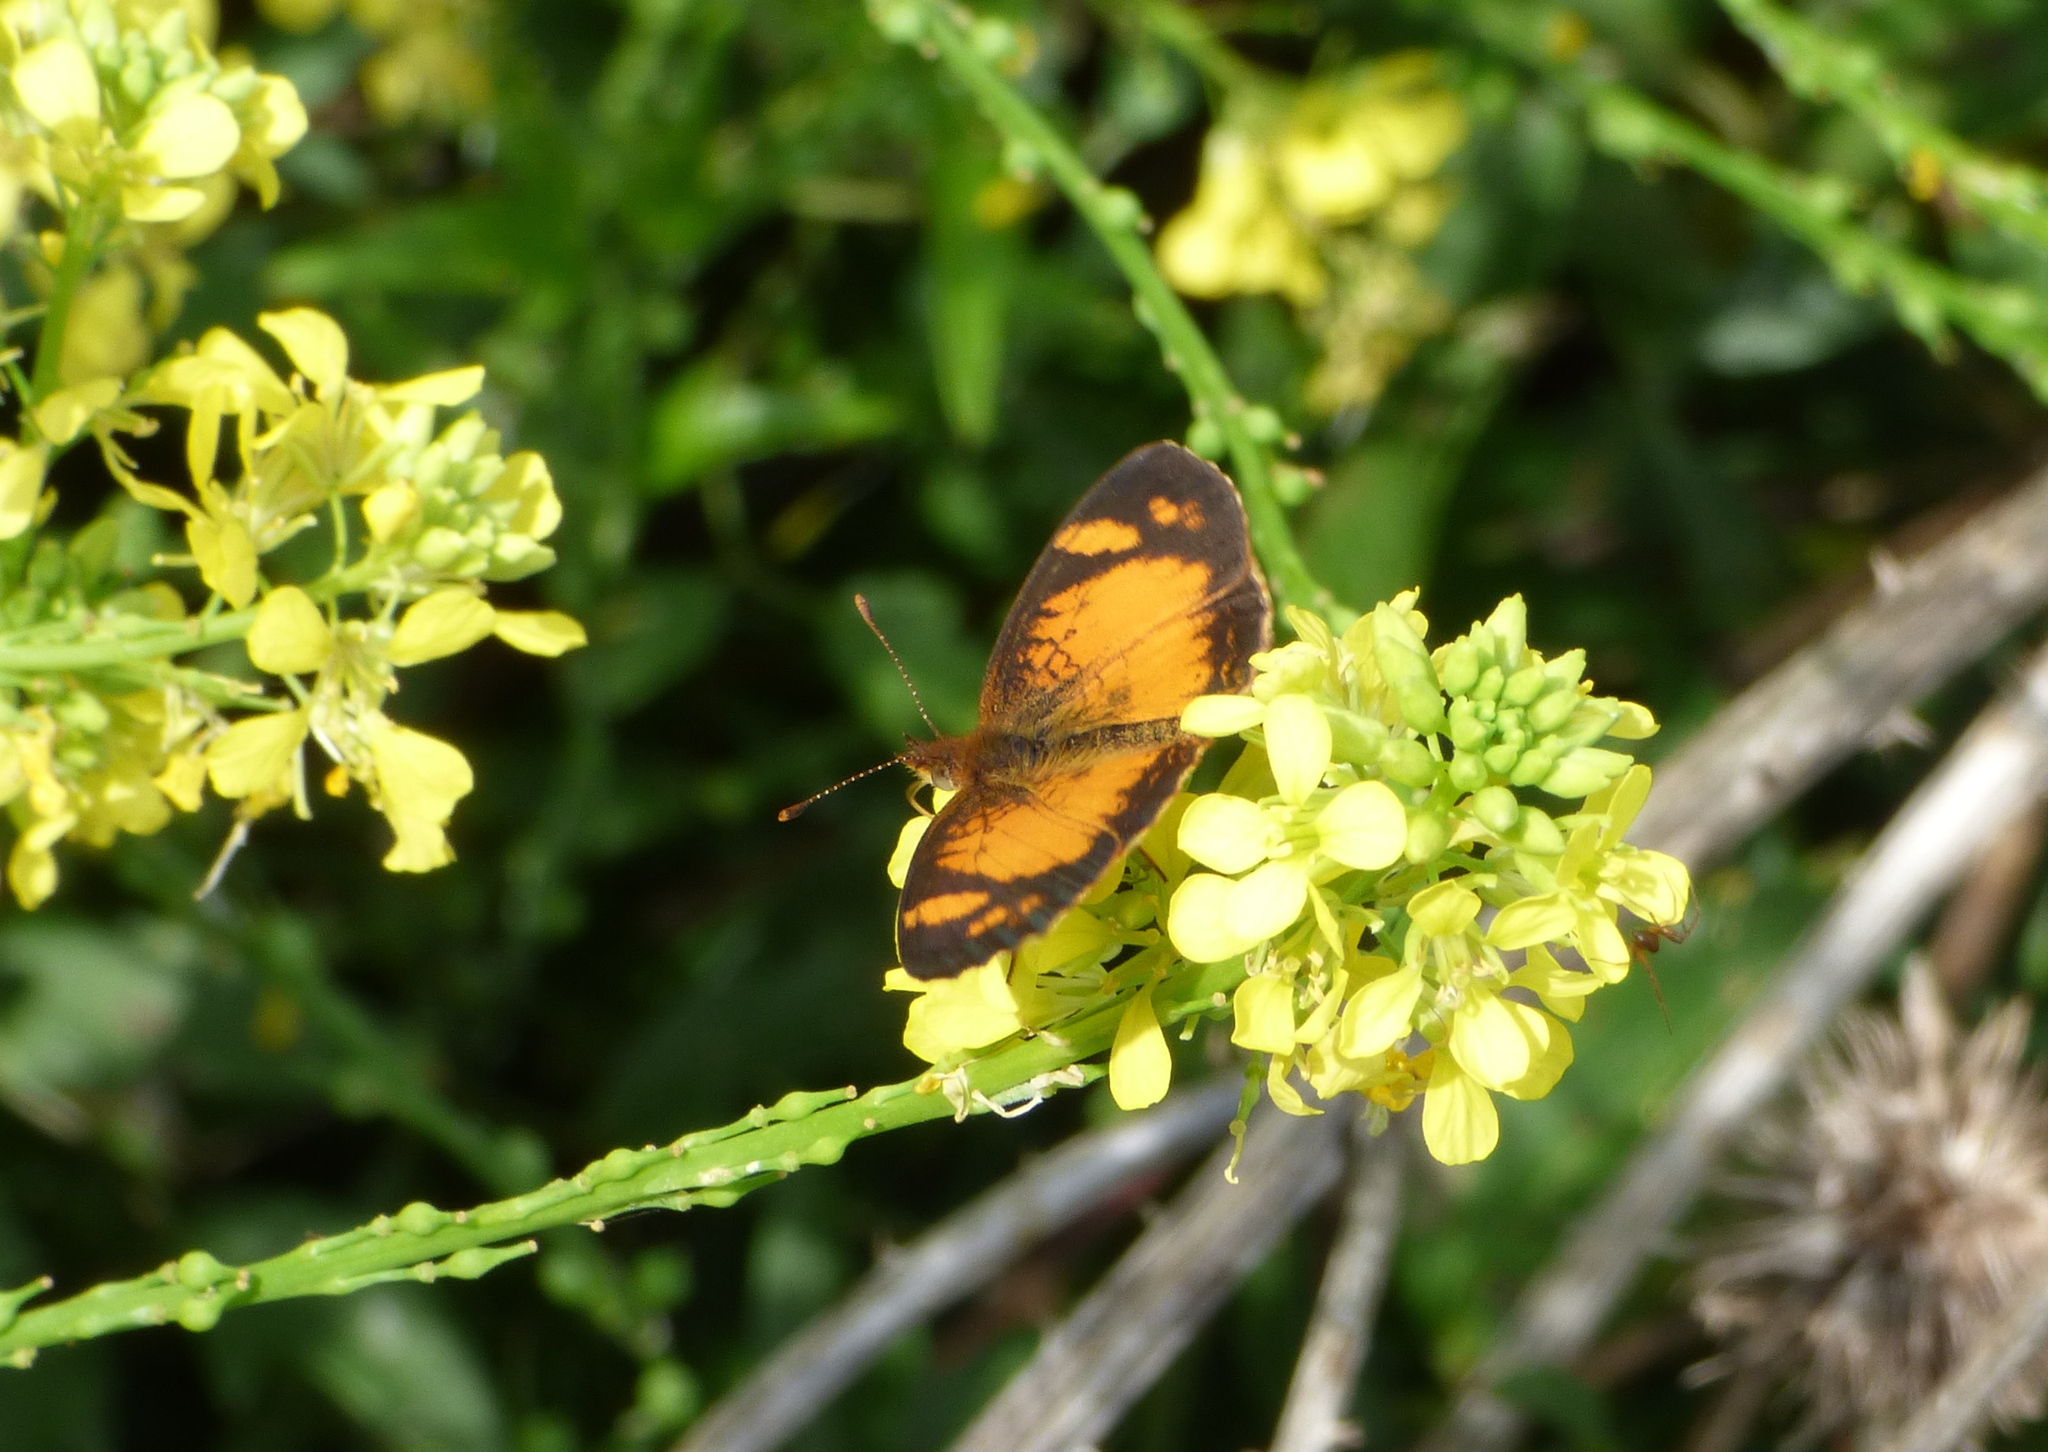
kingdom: Animalia
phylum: Arthropoda
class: Insecta
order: Lepidoptera
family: Nymphalidae
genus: Tegosa
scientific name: Tegosa claudina
